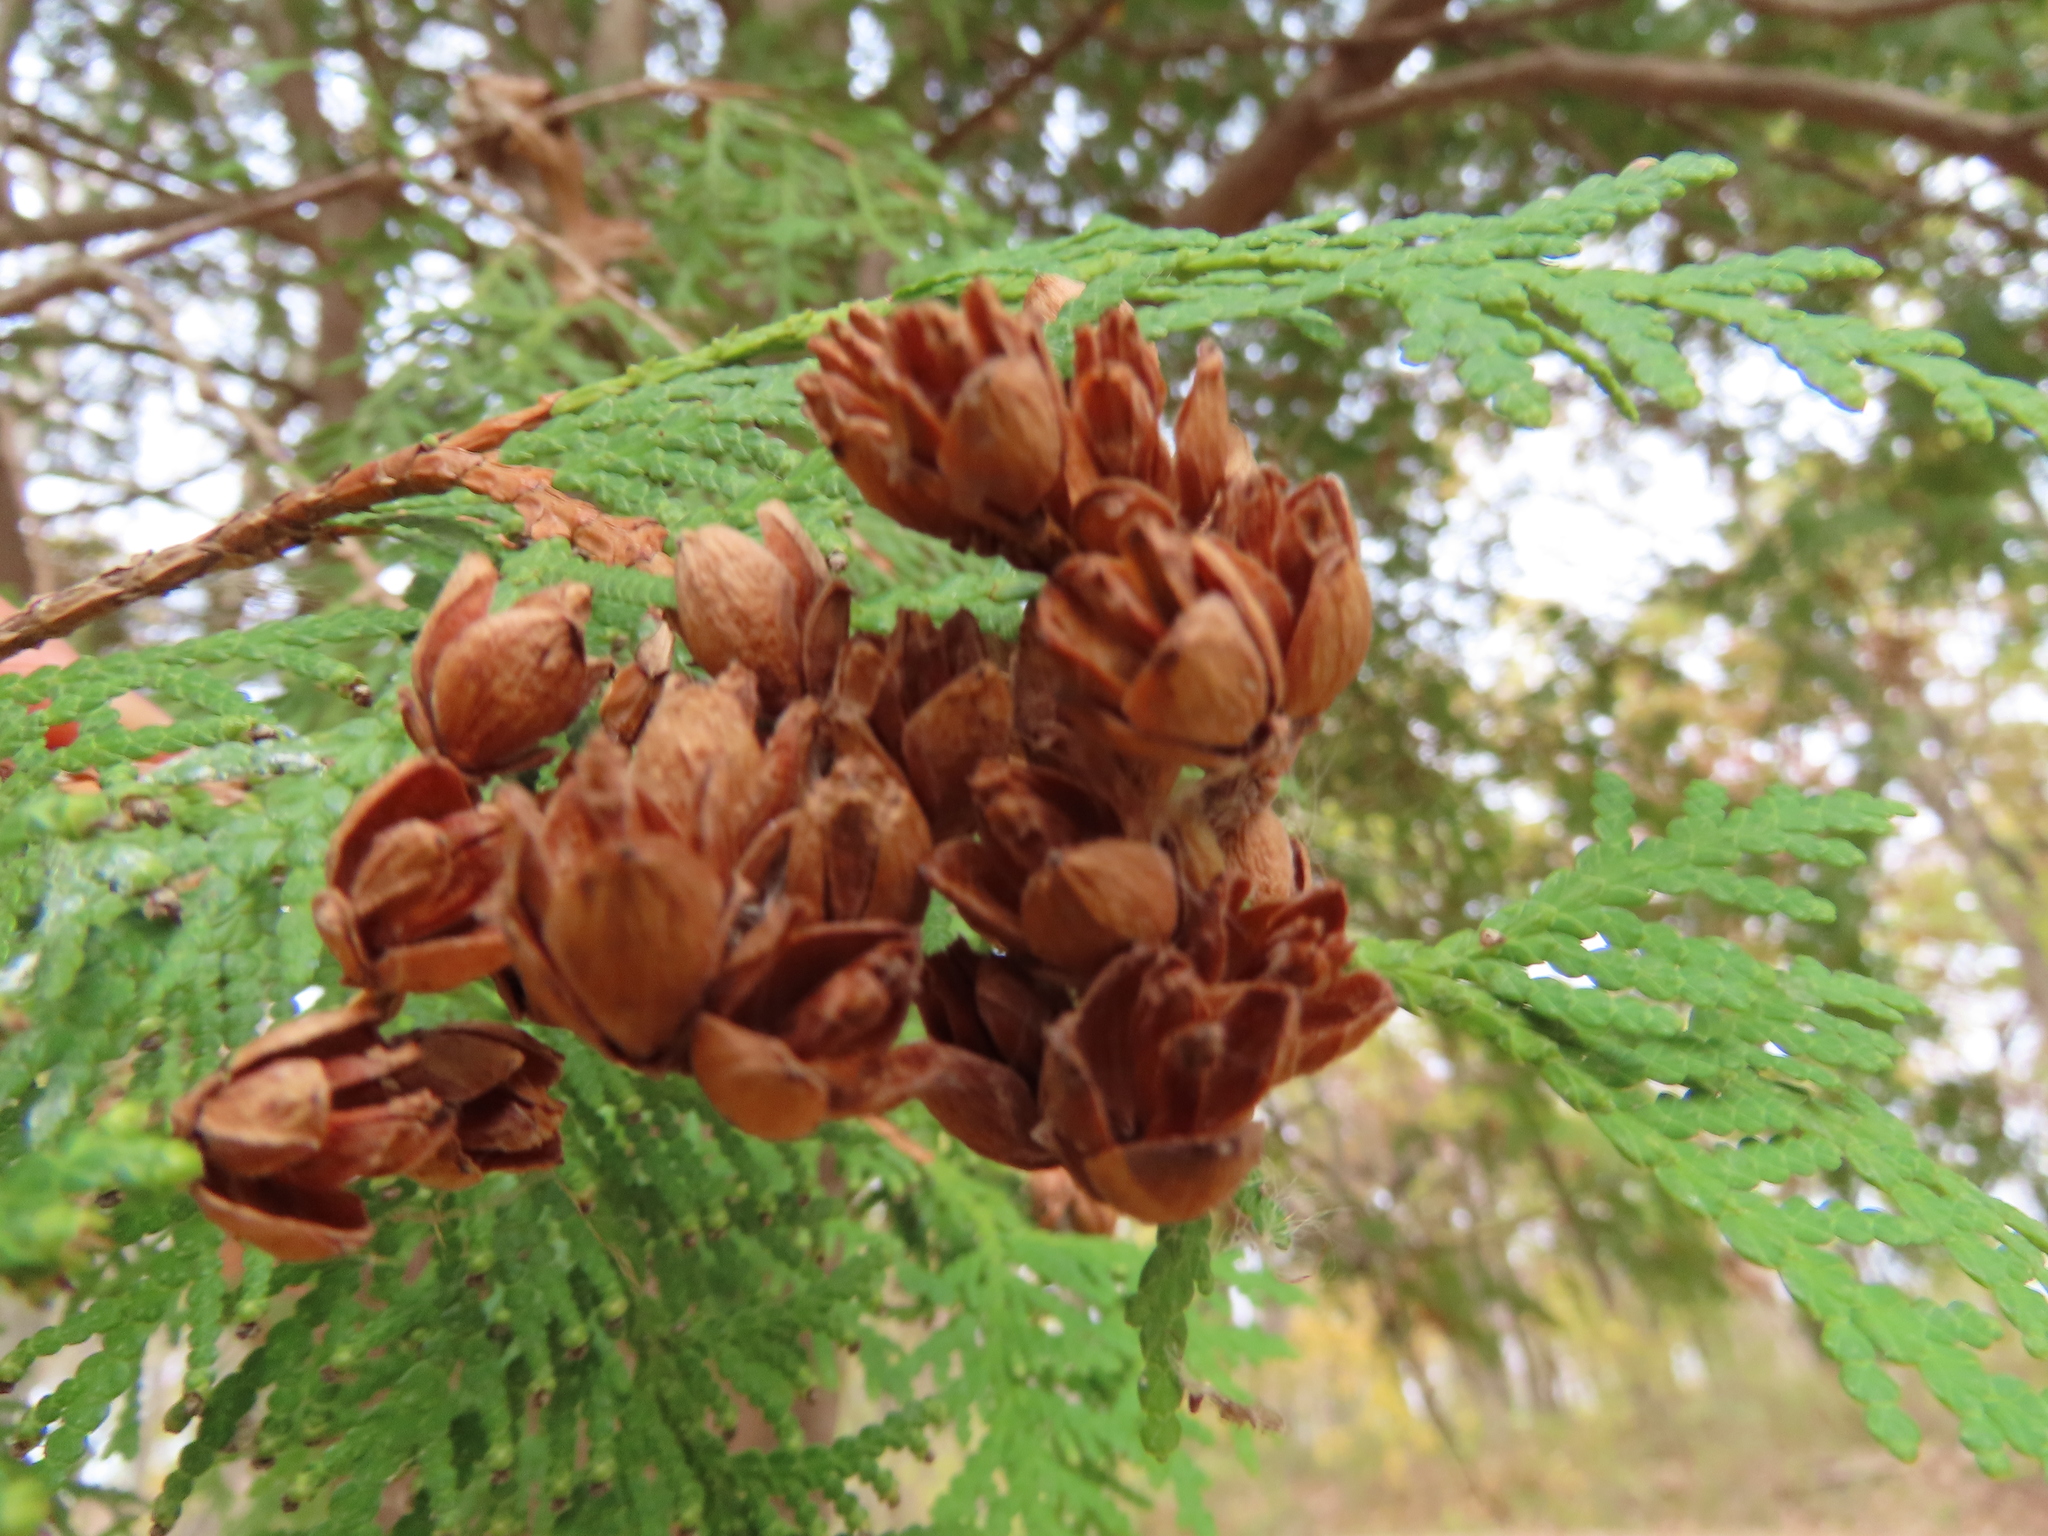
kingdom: Plantae
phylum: Tracheophyta
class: Pinopsida
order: Pinales
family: Cupressaceae
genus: Thuja
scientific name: Thuja occidentalis
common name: Northern white-cedar
